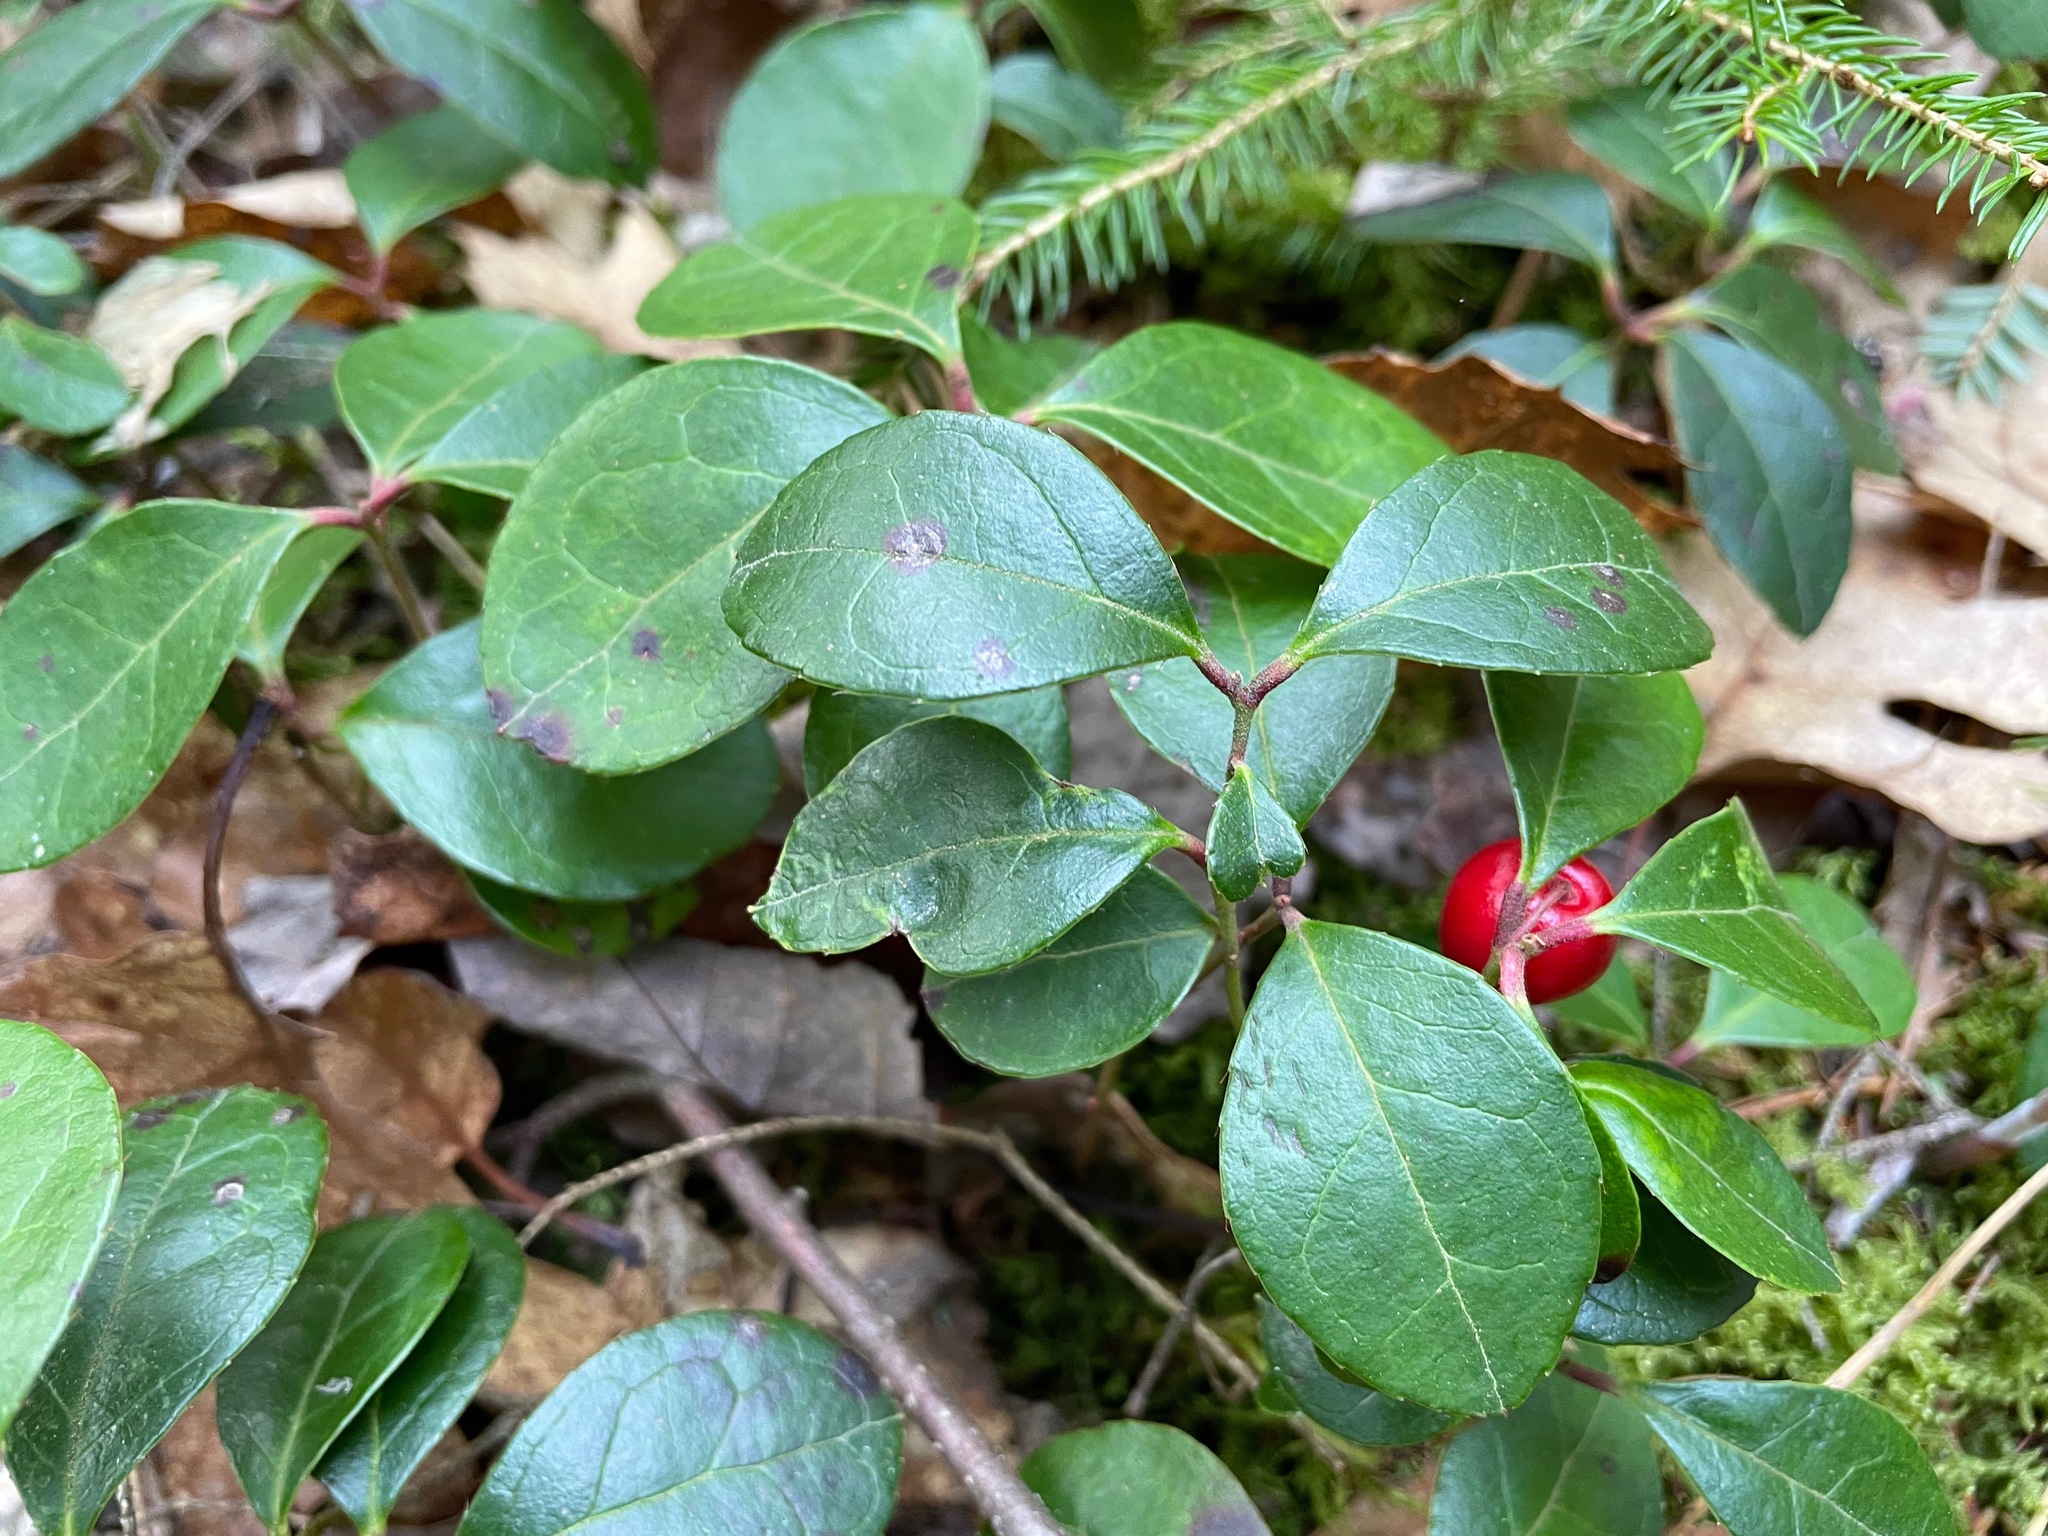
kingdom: Plantae
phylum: Tracheophyta
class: Magnoliopsida
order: Ericales
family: Ericaceae
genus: Gaultheria
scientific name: Gaultheria procumbens
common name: Checkerberry
